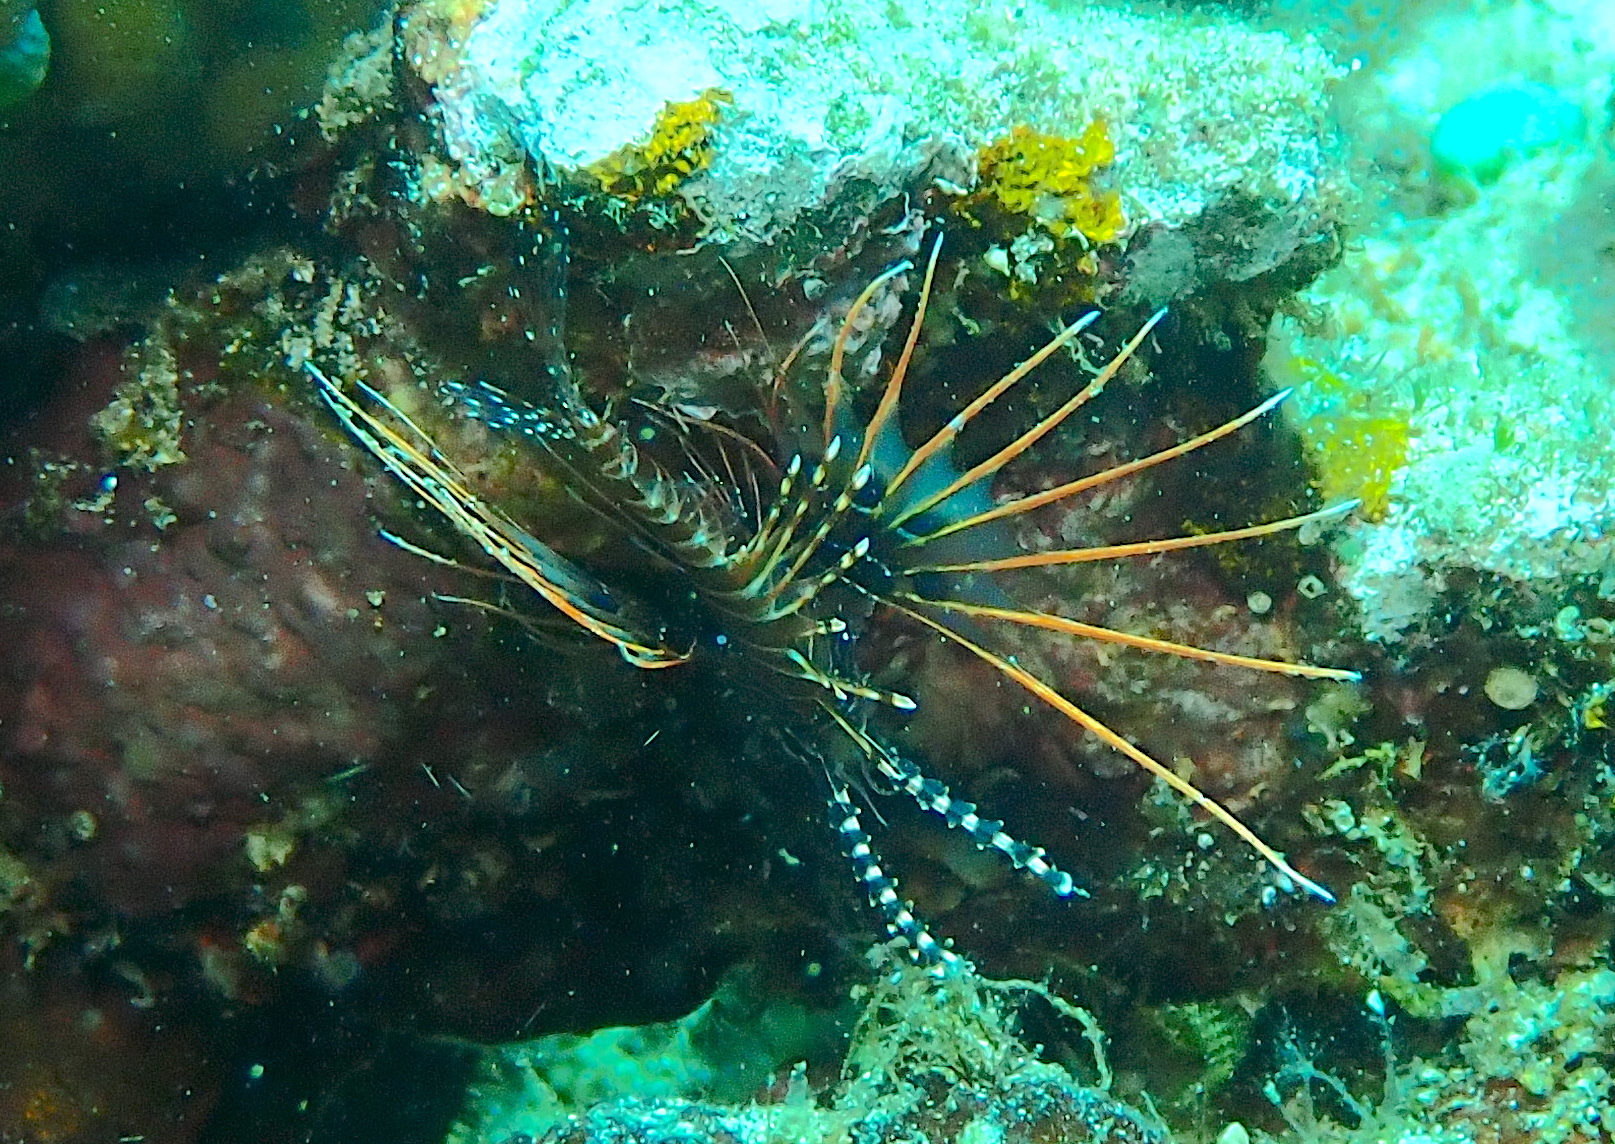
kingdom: Animalia
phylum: Chordata
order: Scorpaeniformes
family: Scorpaenidae
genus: Pterois
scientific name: Pterois antennata
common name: Spotfin lionfish
